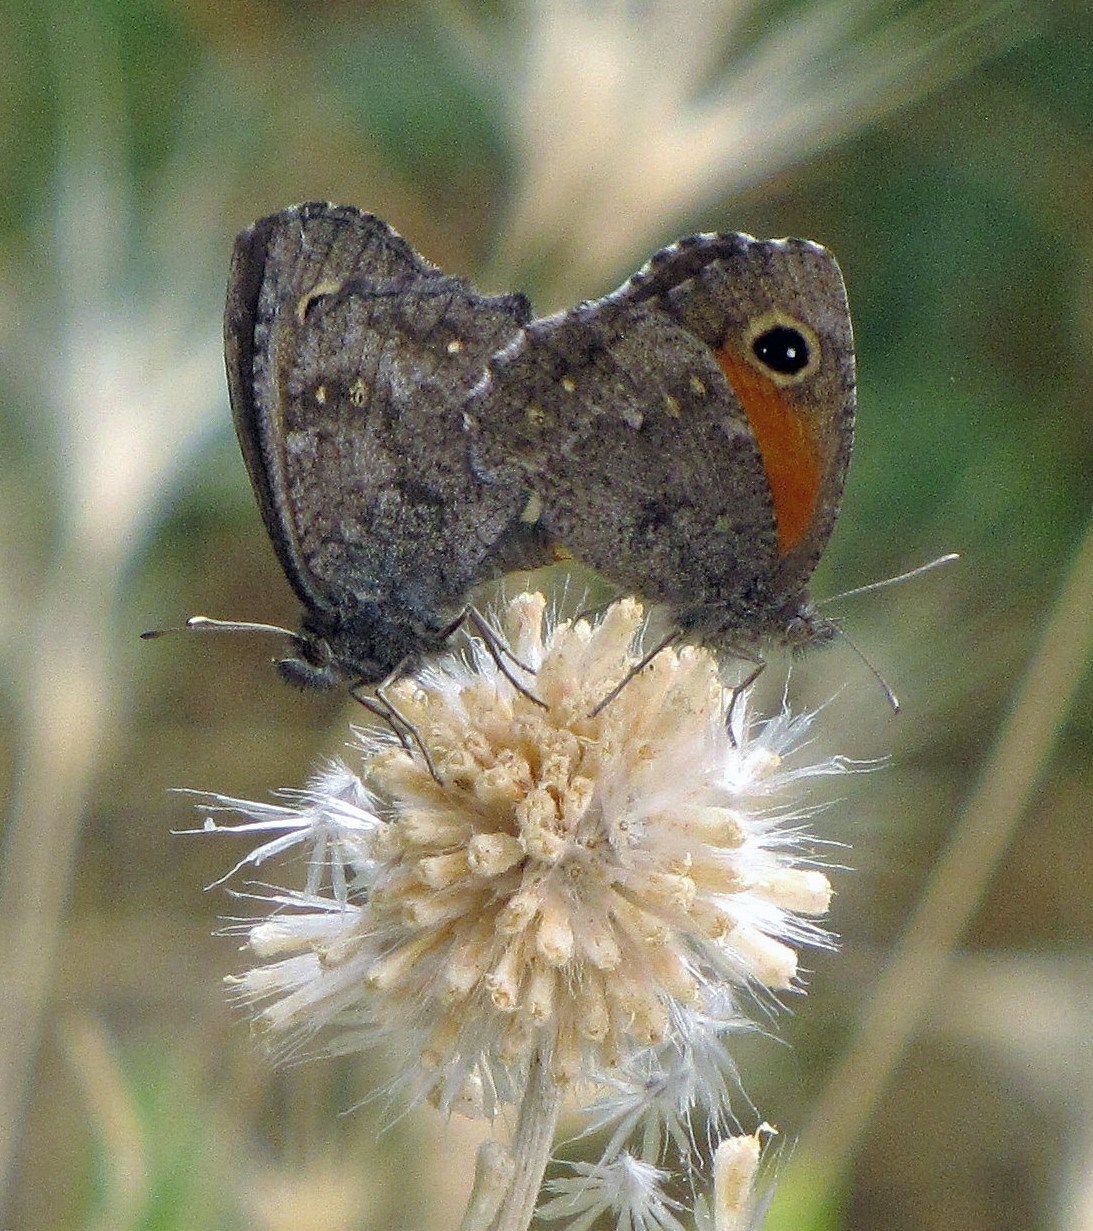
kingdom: Animalia
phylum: Arthropoda
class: Insecta
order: Lepidoptera
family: Nymphalidae
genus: Auca
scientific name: Auca coctei
